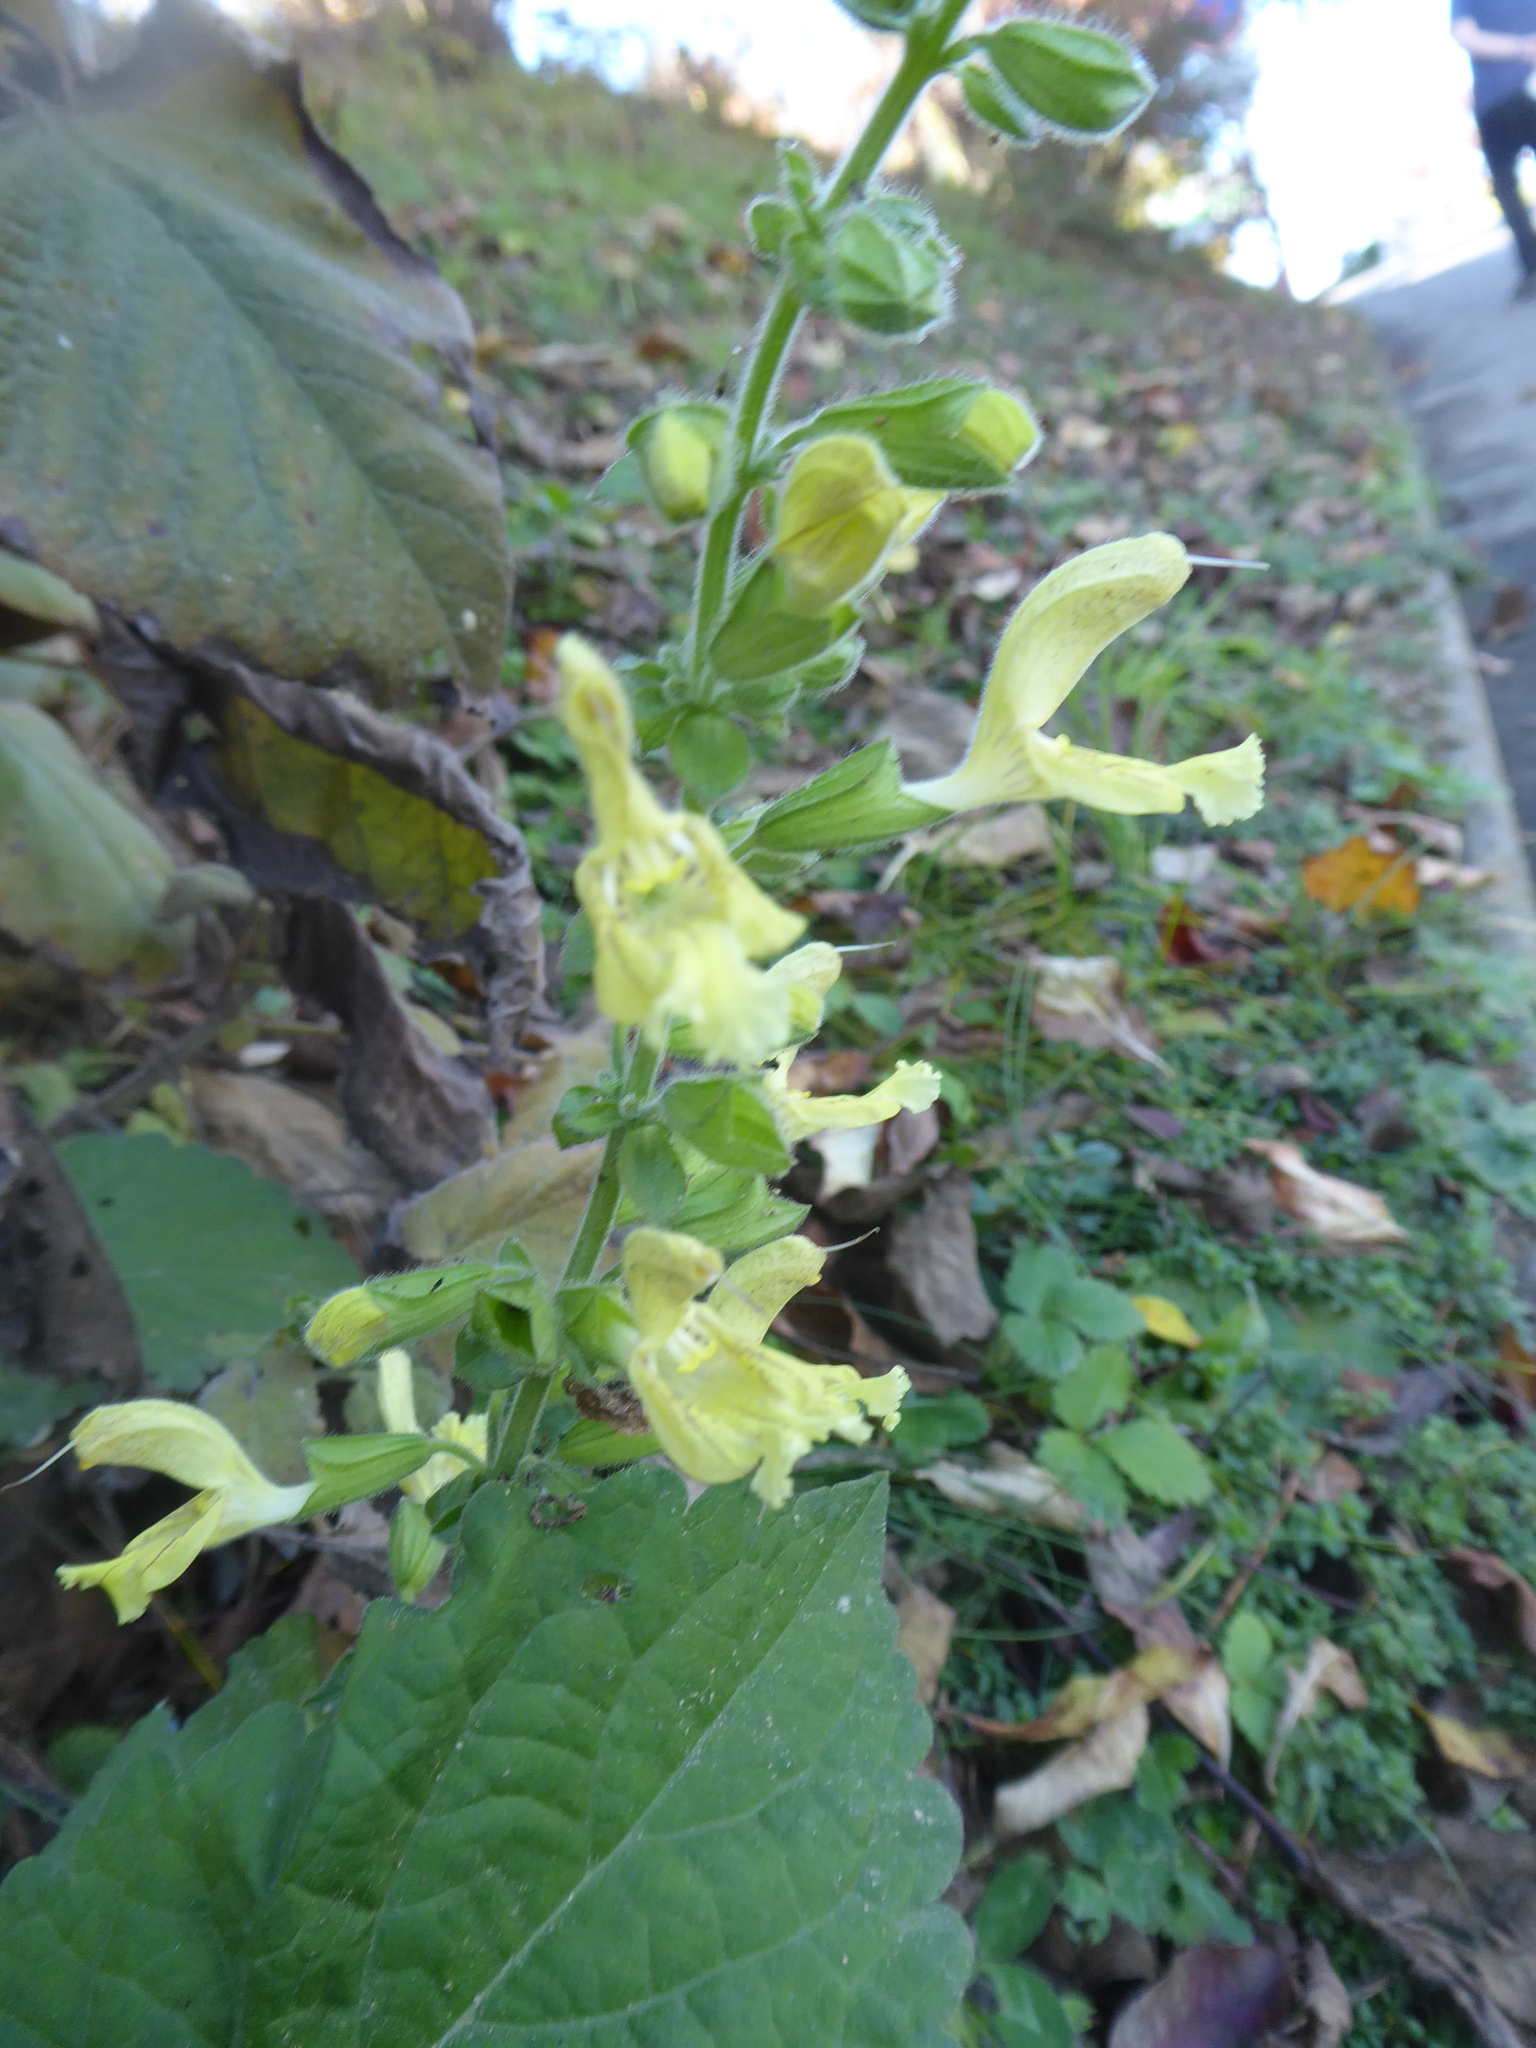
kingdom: Plantae
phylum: Tracheophyta
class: Magnoliopsida
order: Lamiales
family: Lamiaceae
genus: Salvia
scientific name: Salvia glutinosa
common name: Sticky clary
